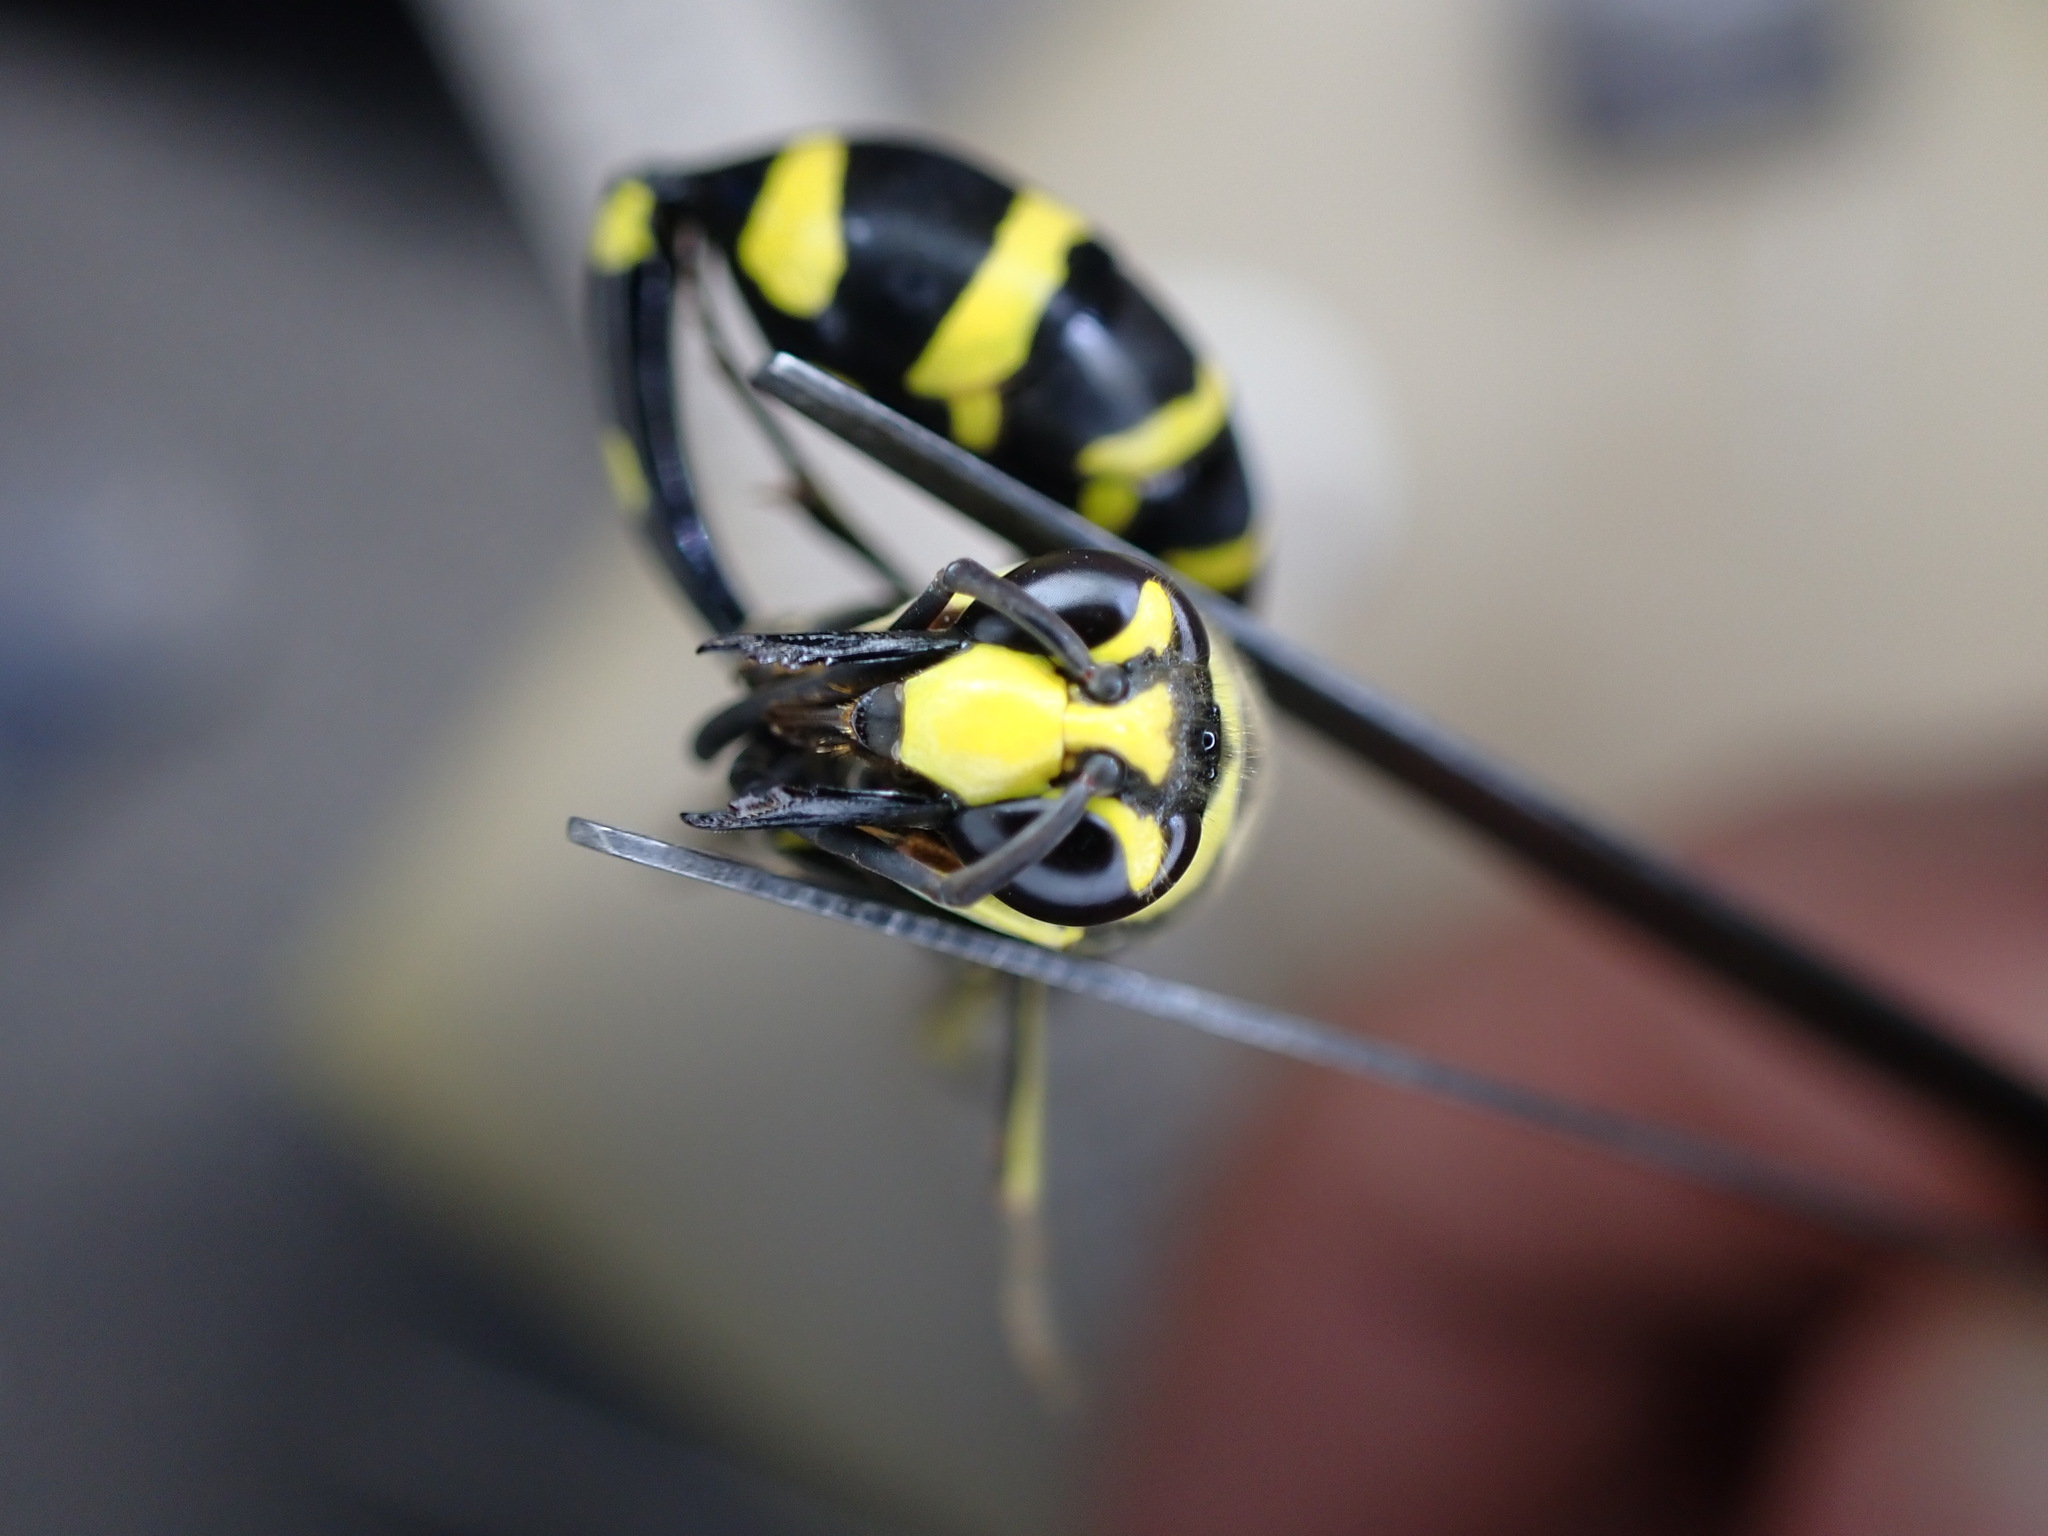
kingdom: Animalia
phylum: Arthropoda
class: Insecta
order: Hymenoptera
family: Eumenidae
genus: Phimenes
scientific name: Phimenes arcuatus
